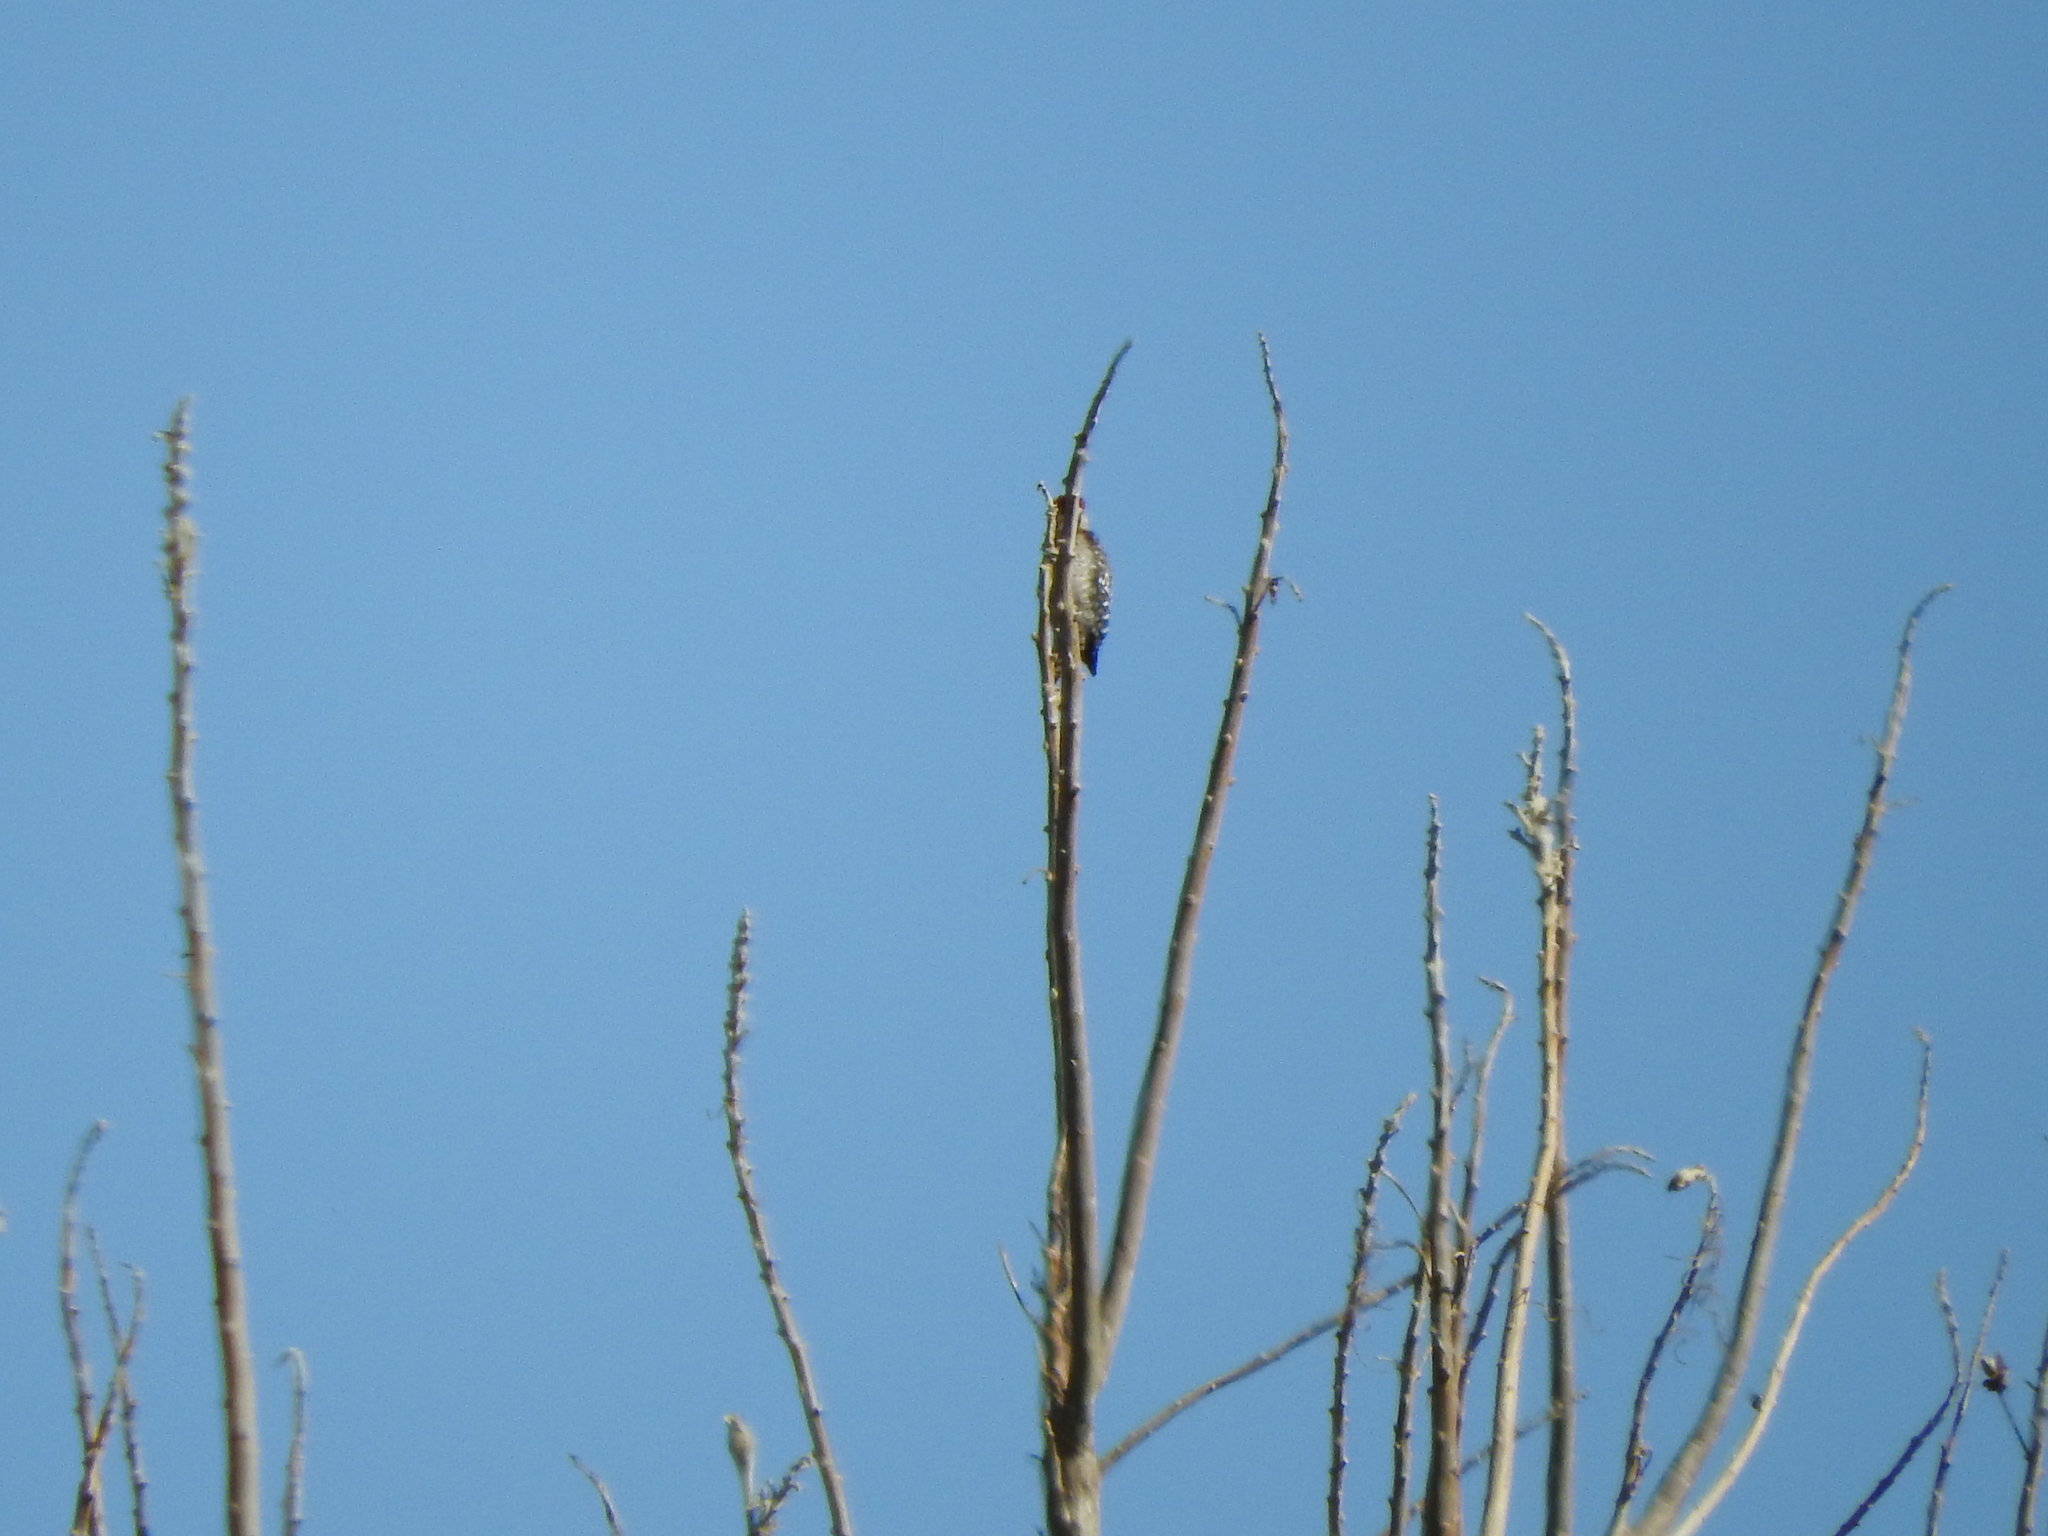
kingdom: Animalia
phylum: Chordata
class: Aves
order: Piciformes
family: Picidae
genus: Dryobates
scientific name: Dryobates scalaris
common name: Ladder-backed woodpecker
